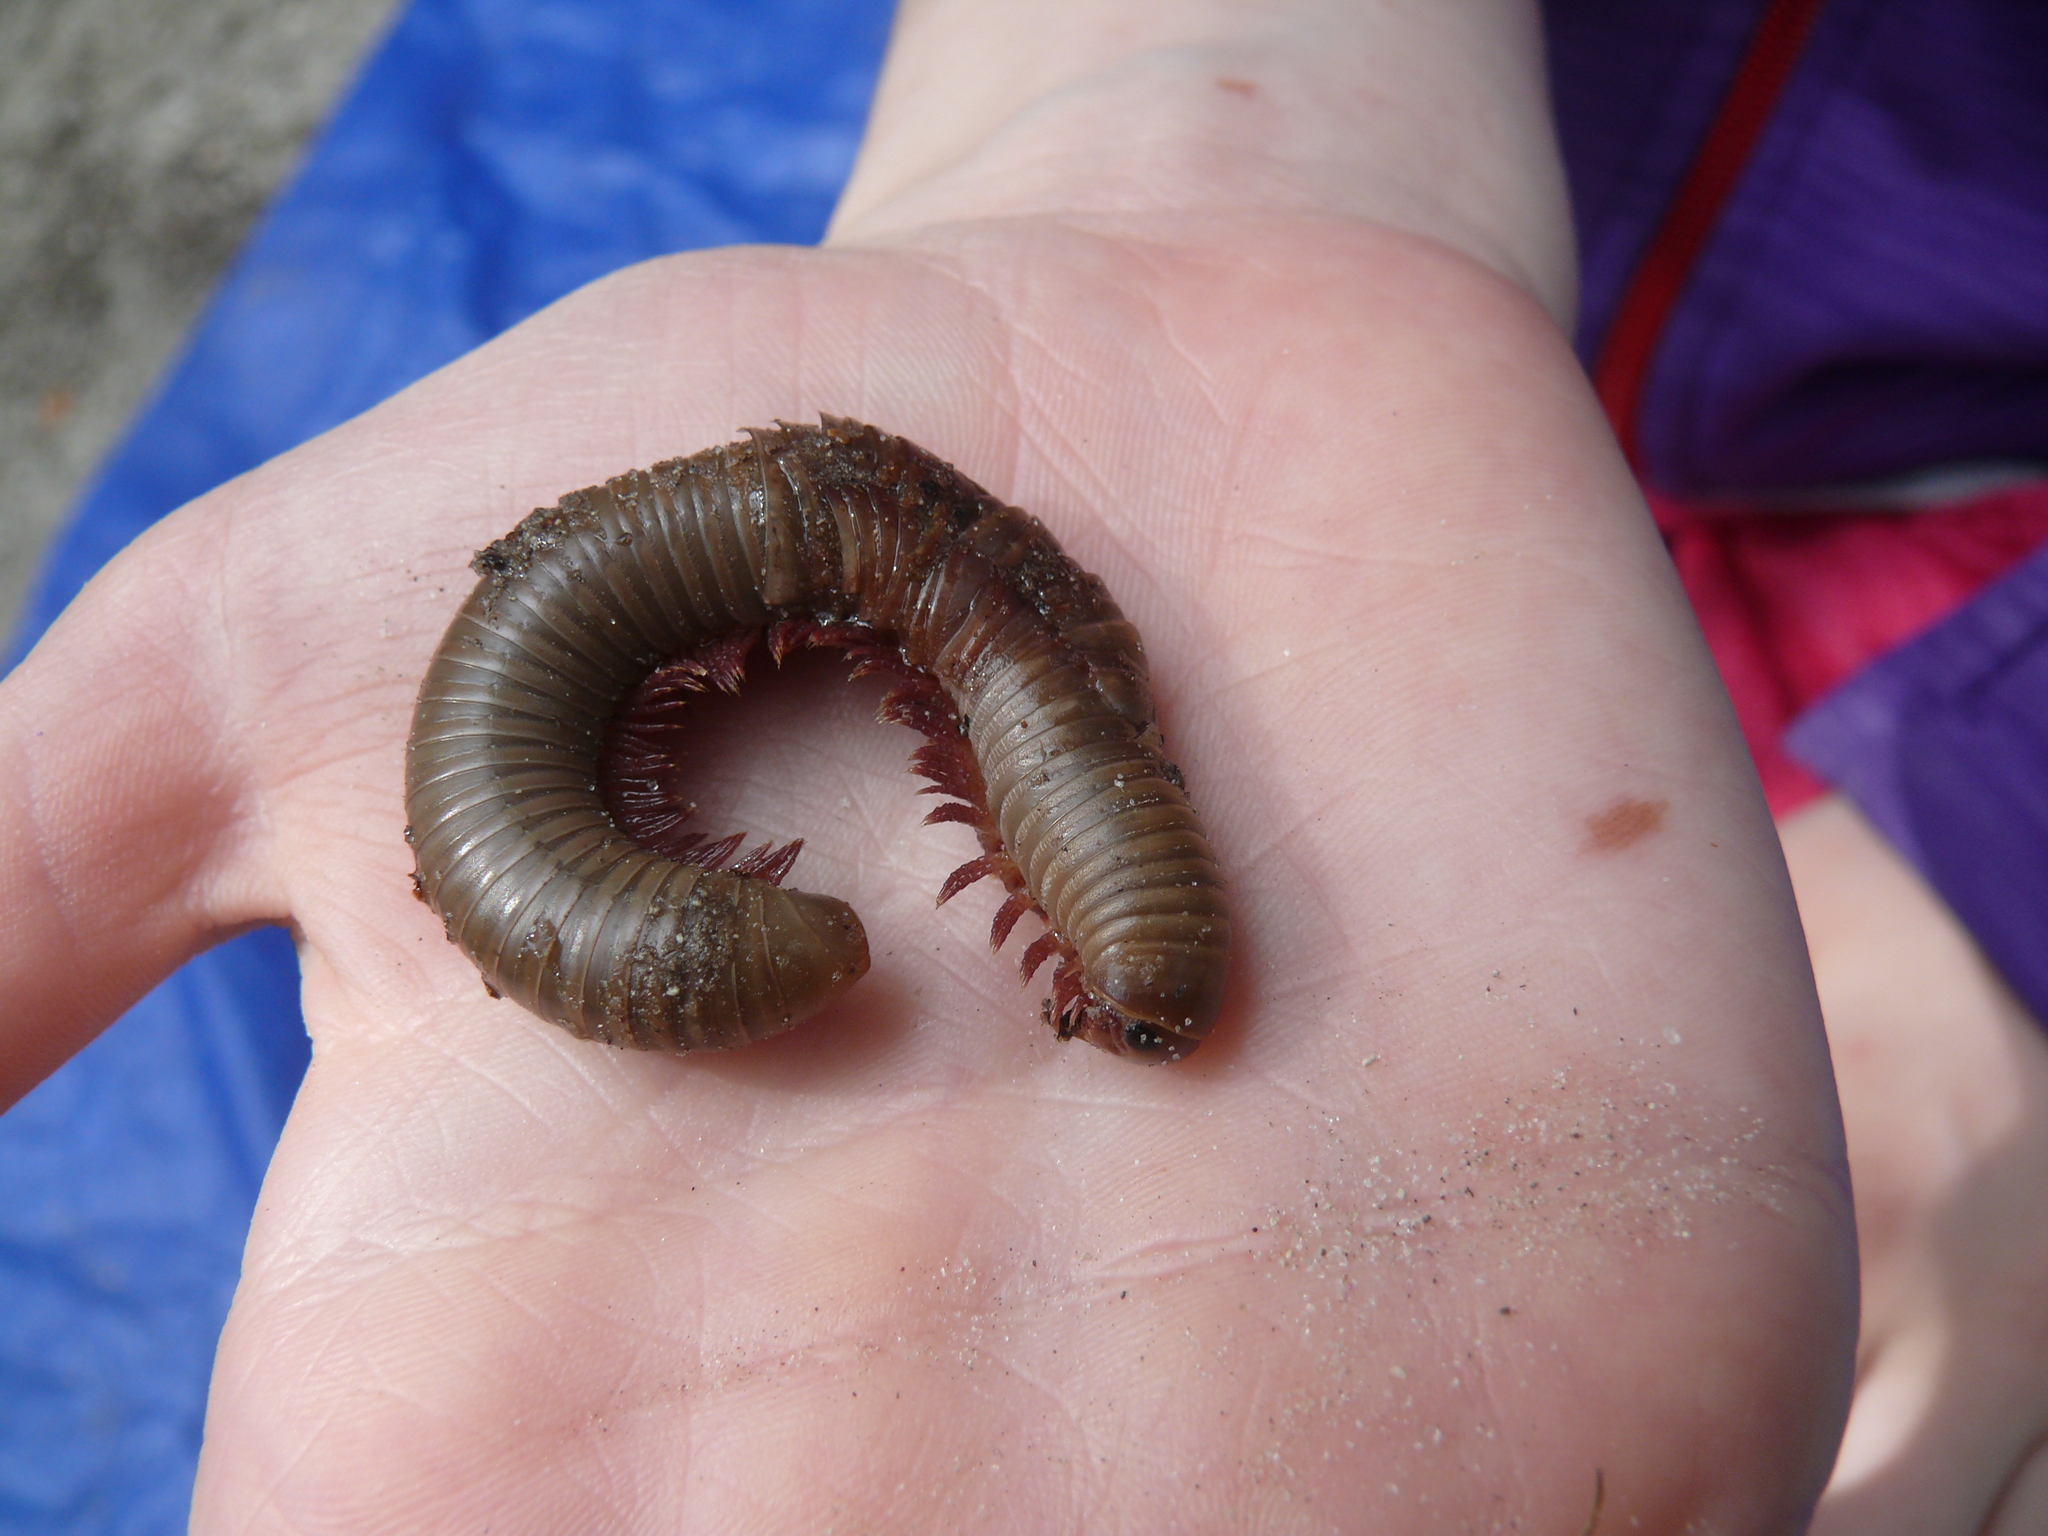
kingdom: Animalia
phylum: Arthropoda
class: Diplopoda
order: Spirobolida
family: Spirobolidae
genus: Narceus
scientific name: Narceus gordanus
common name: Grayish-green millipede
